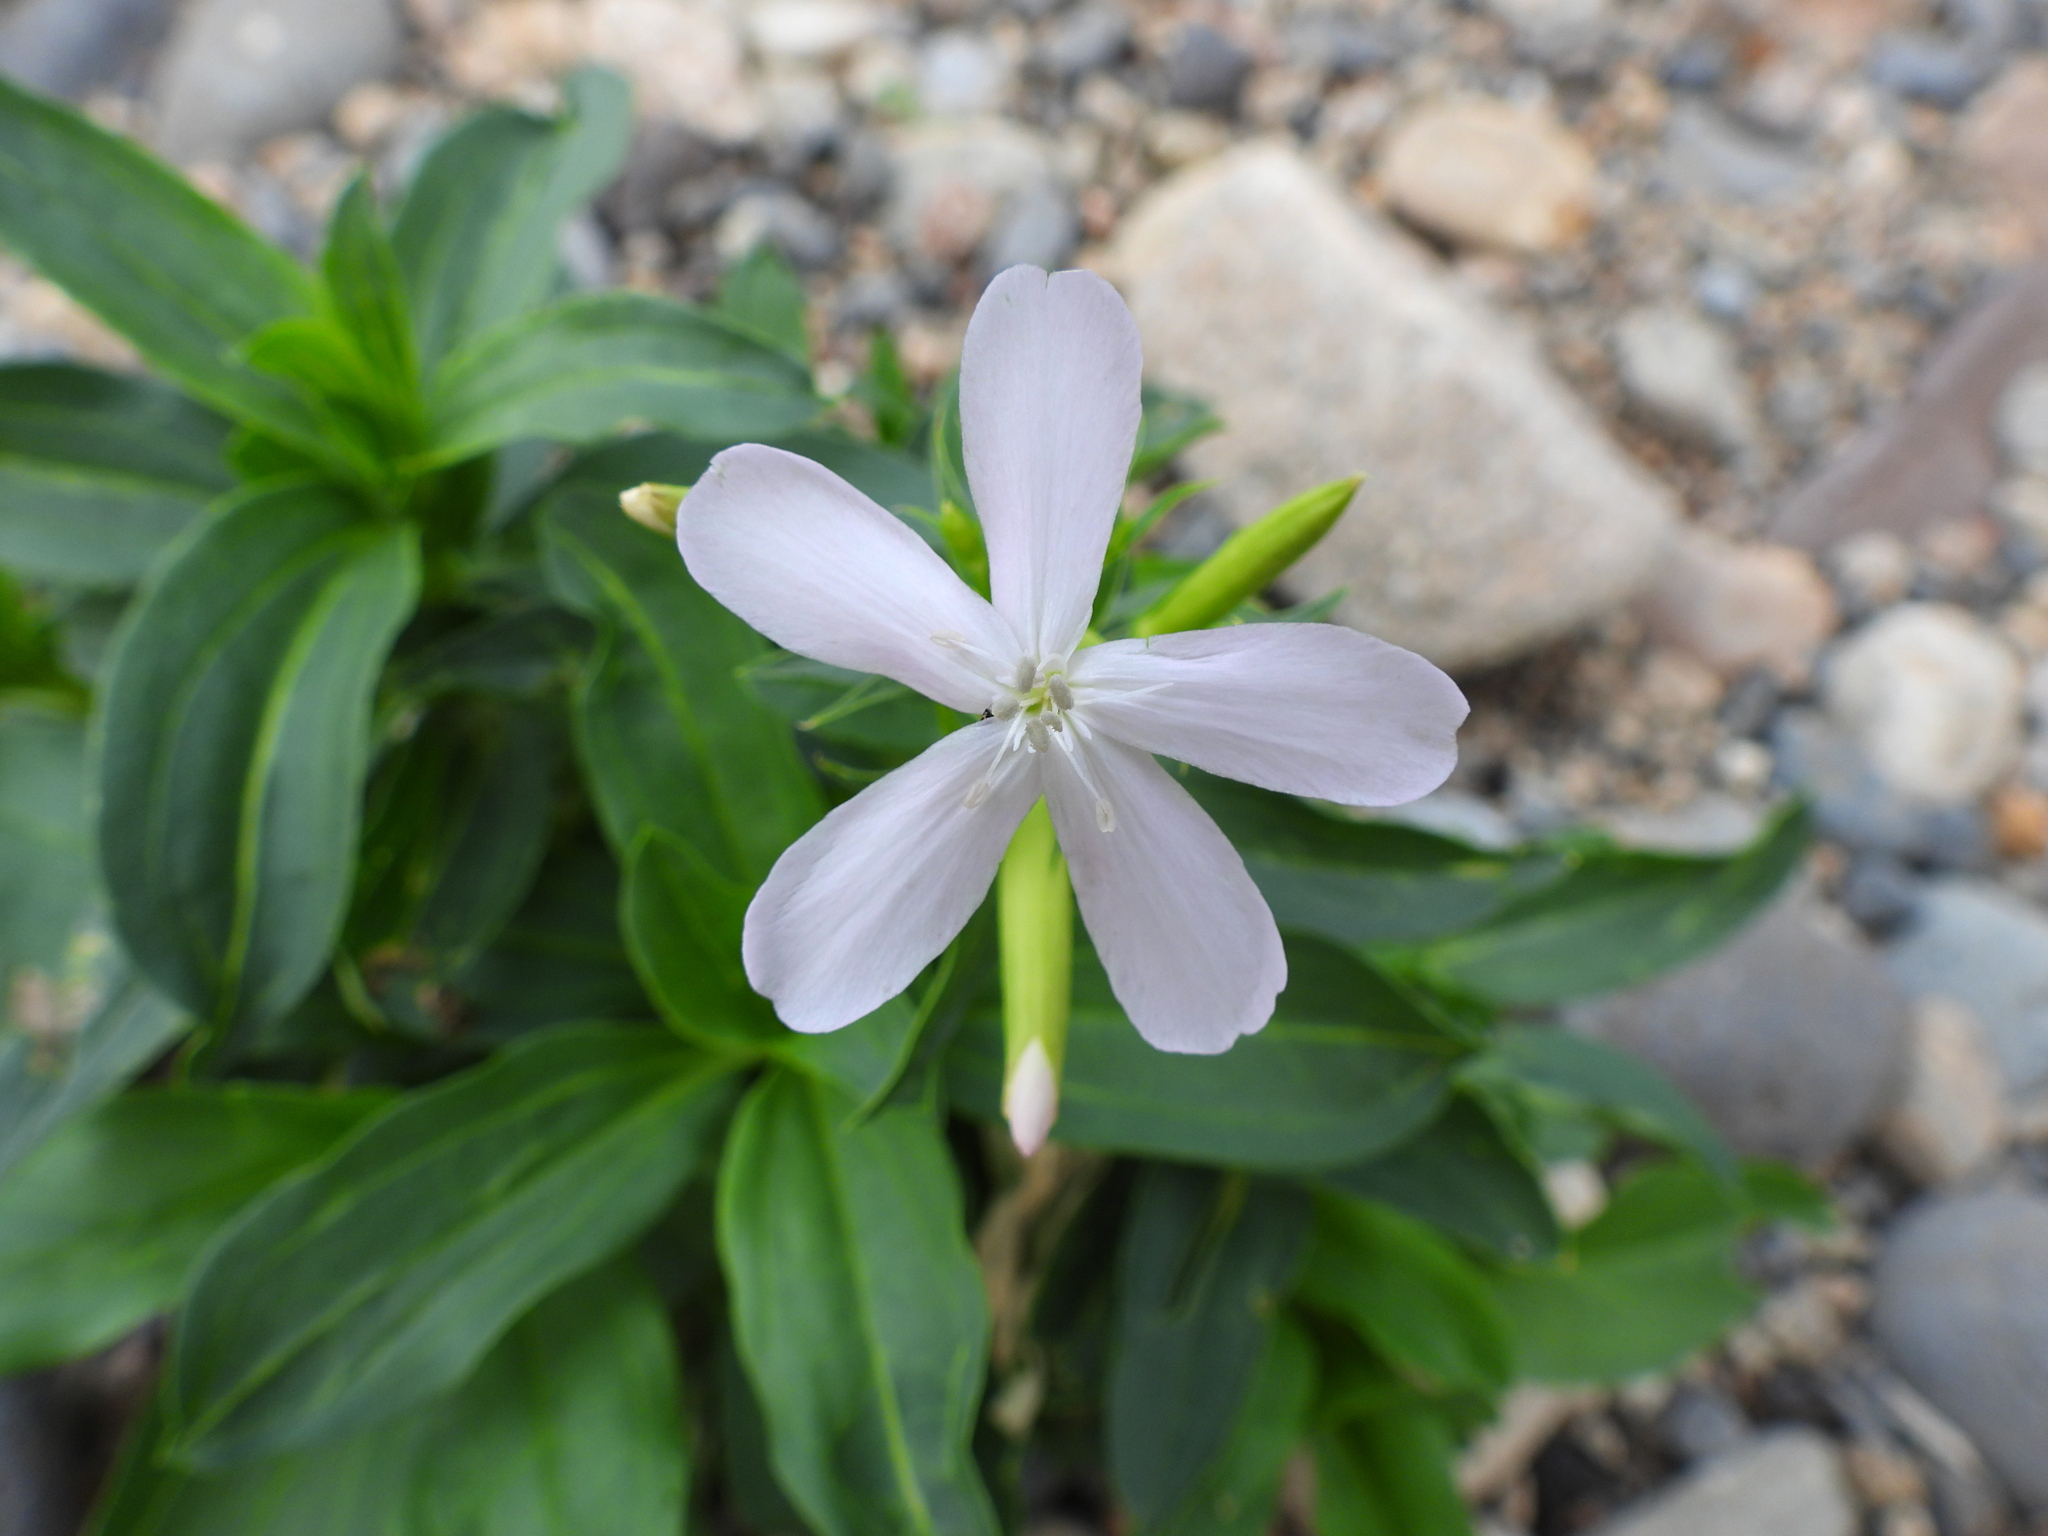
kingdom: Plantae
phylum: Tracheophyta
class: Magnoliopsida
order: Caryophyllales
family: Caryophyllaceae
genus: Saponaria
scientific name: Saponaria officinalis
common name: Soapwort
